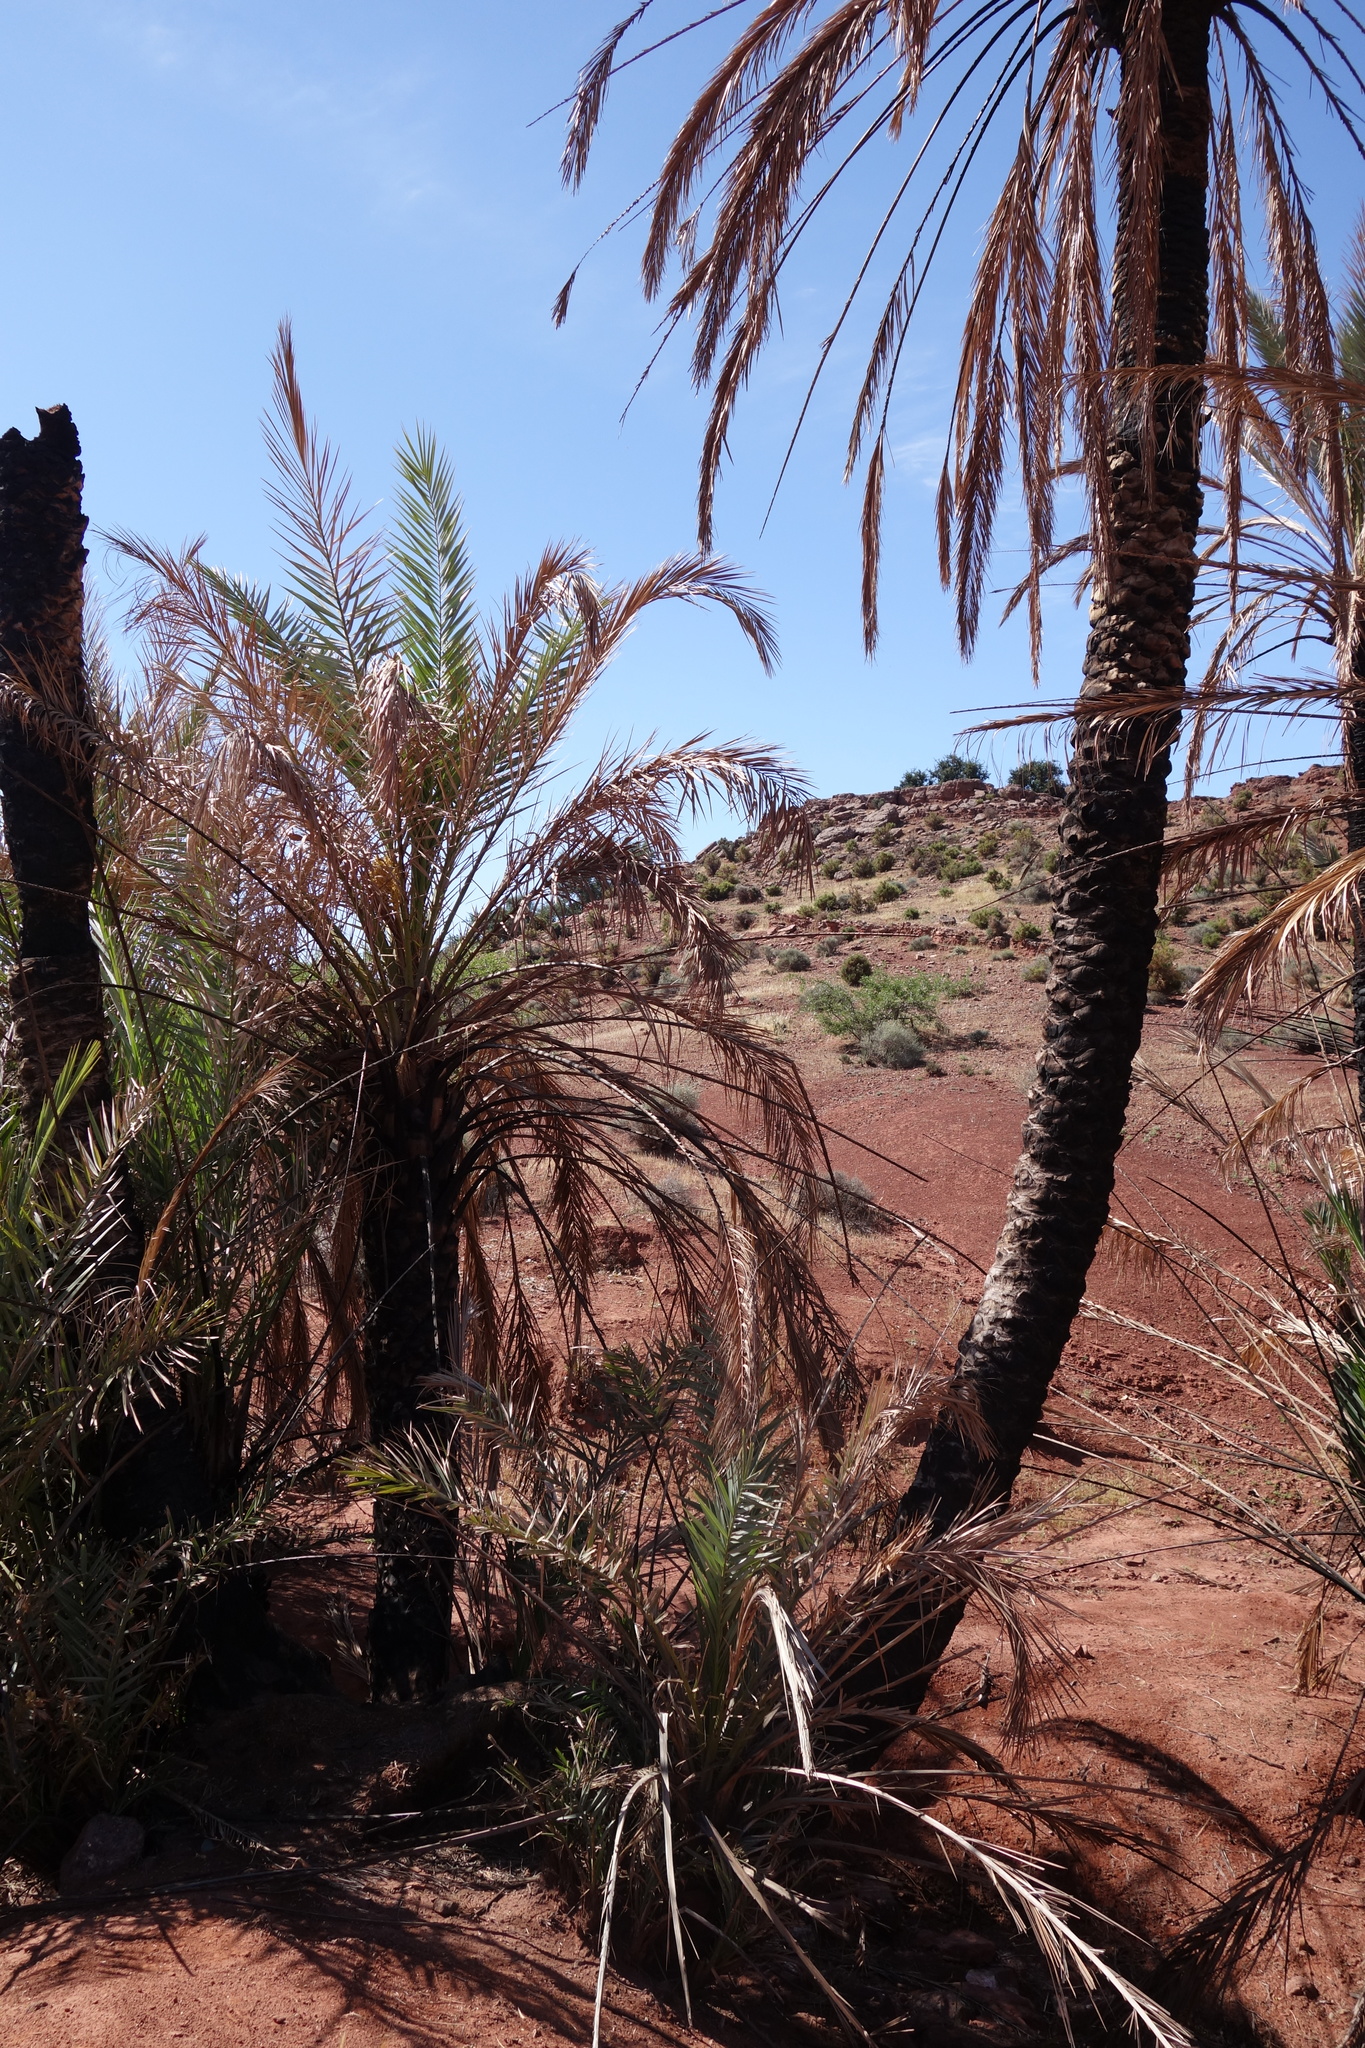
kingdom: Plantae
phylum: Tracheophyta
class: Liliopsida
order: Arecales
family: Arecaceae
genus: Phoenix
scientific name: Phoenix dactylifera
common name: Date palm
